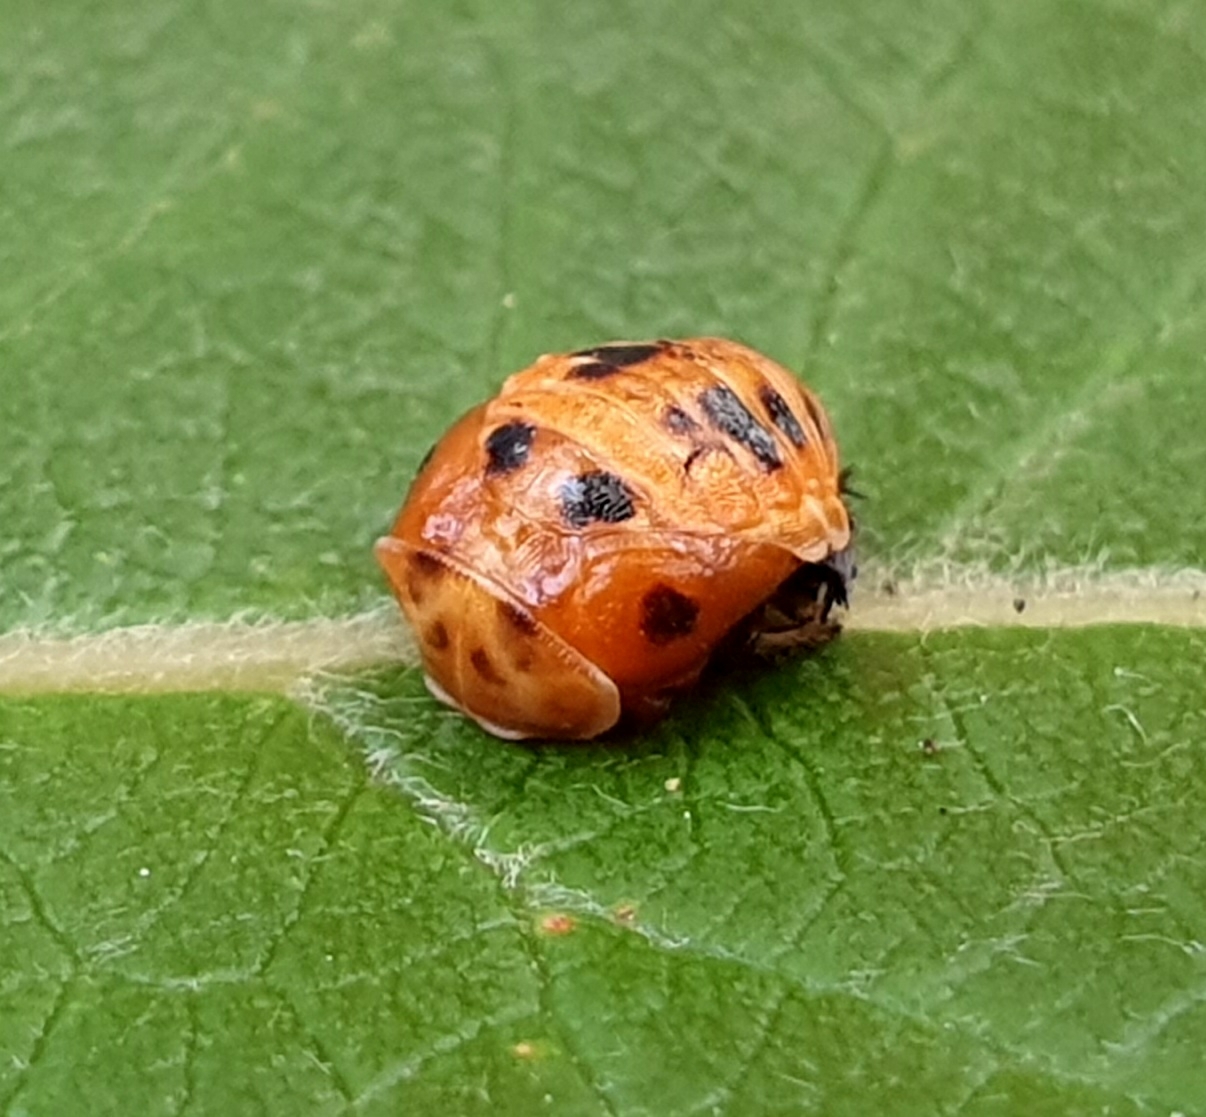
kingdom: Animalia
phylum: Arthropoda
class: Insecta
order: Coleoptera
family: Coccinellidae
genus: Harmonia
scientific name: Harmonia axyridis
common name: Harlequin ladybird
